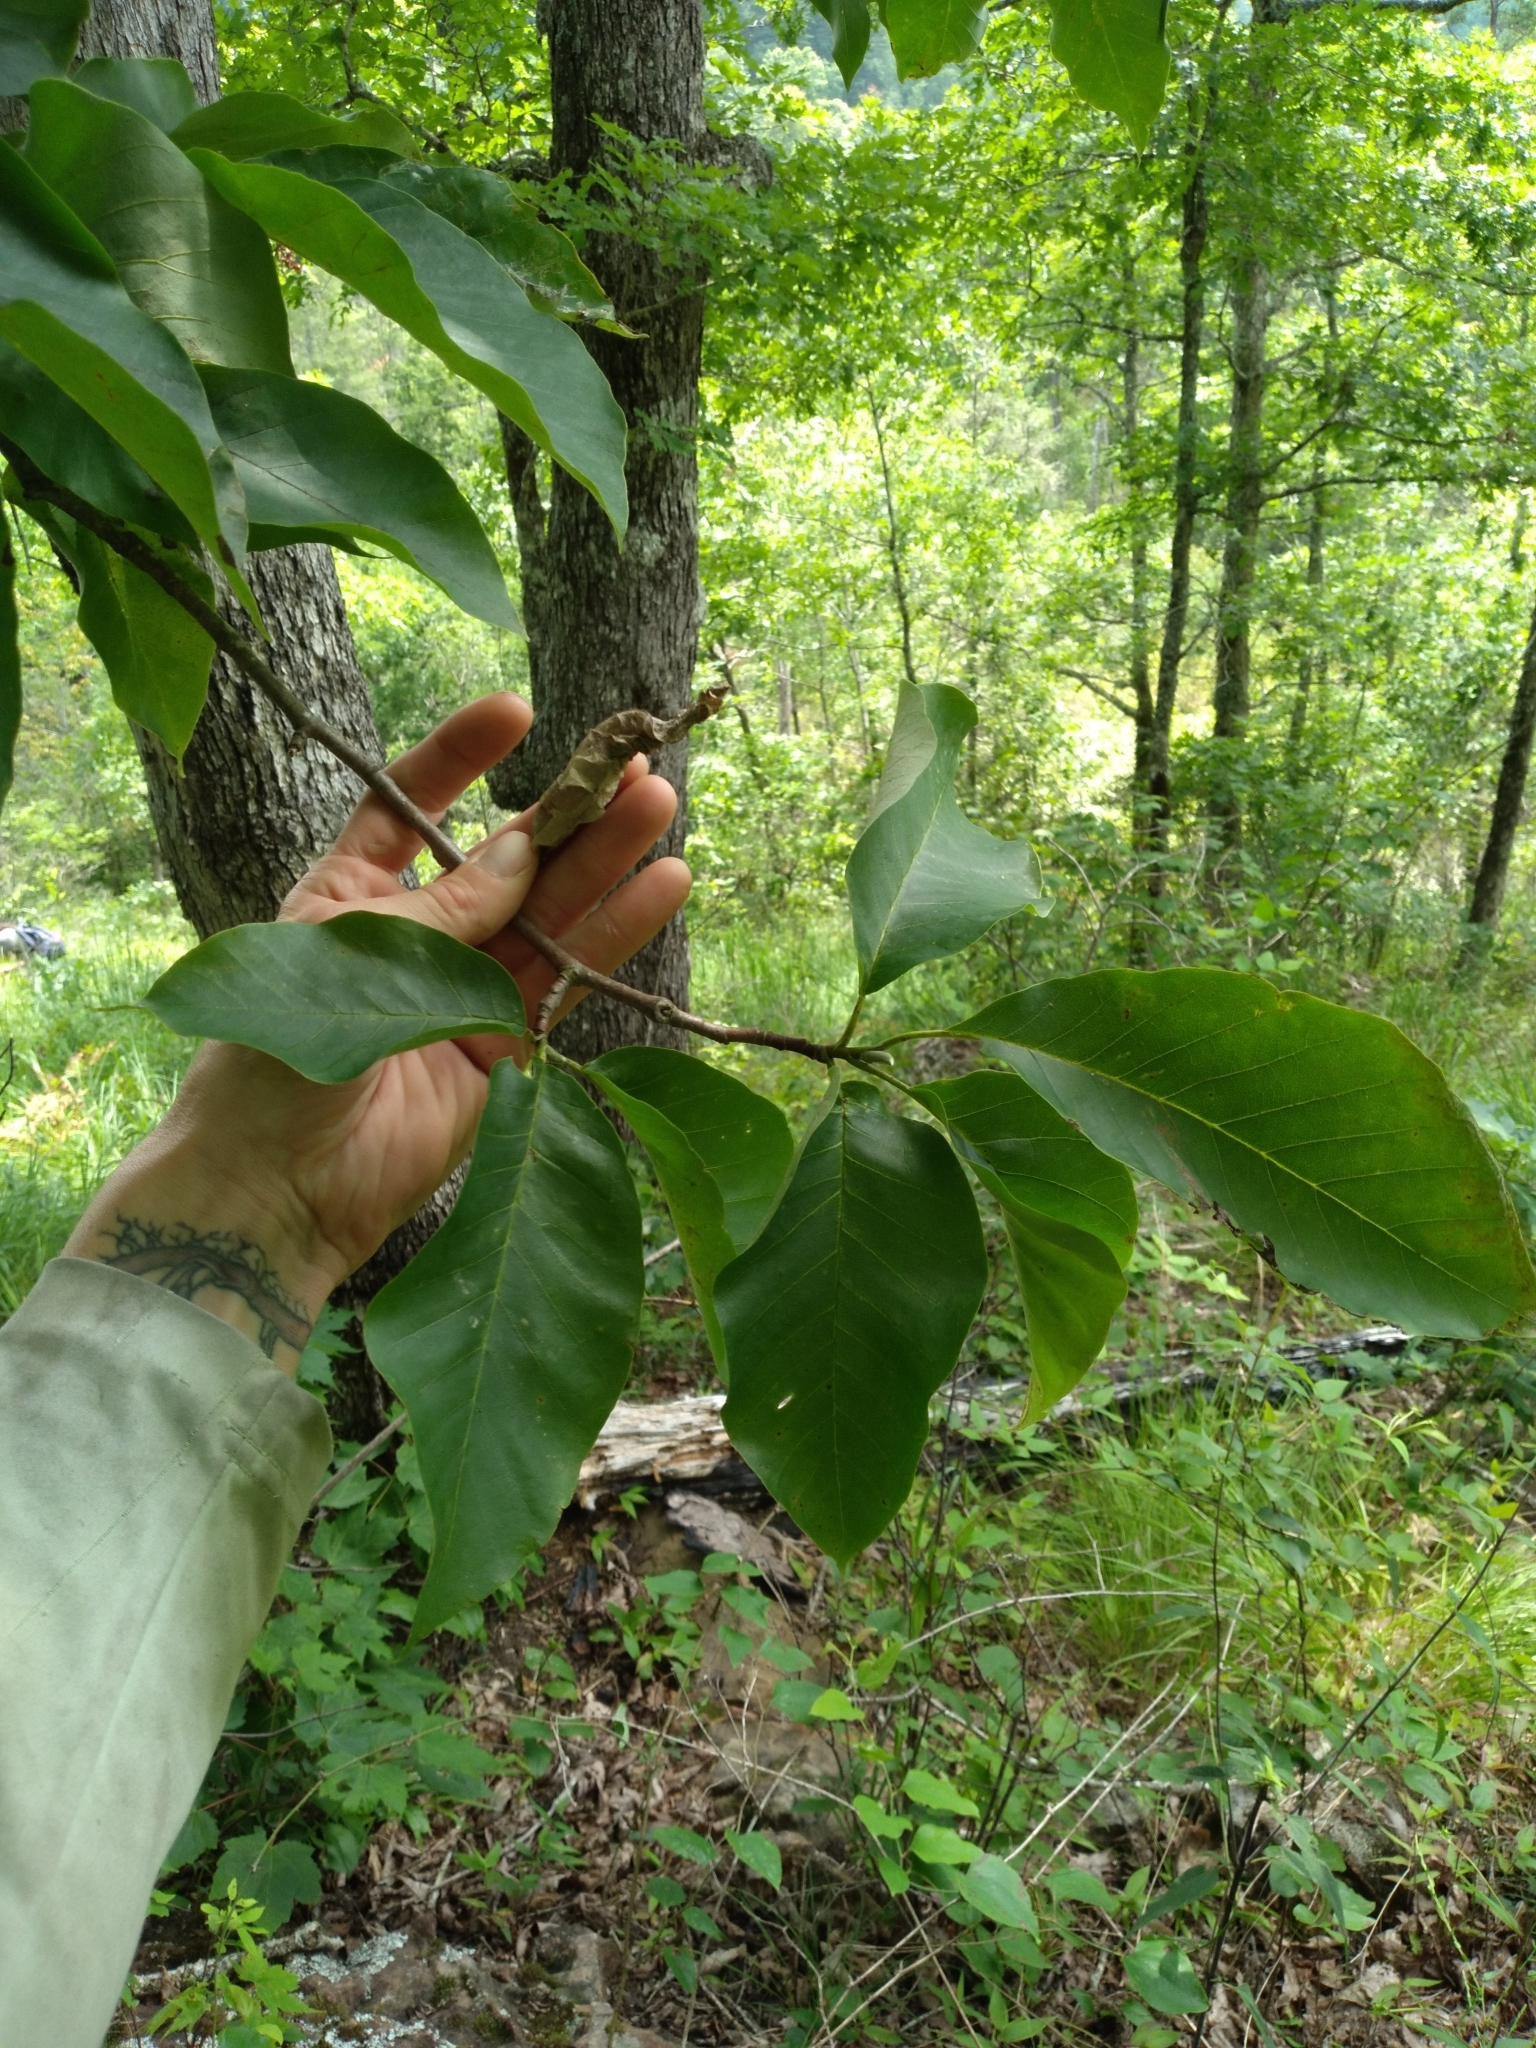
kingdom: Plantae
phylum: Tracheophyta
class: Magnoliopsida
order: Magnoliales
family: Magnoliaceae
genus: Magnolia
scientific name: Magnolia acuminata
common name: Cucumber magnolia
